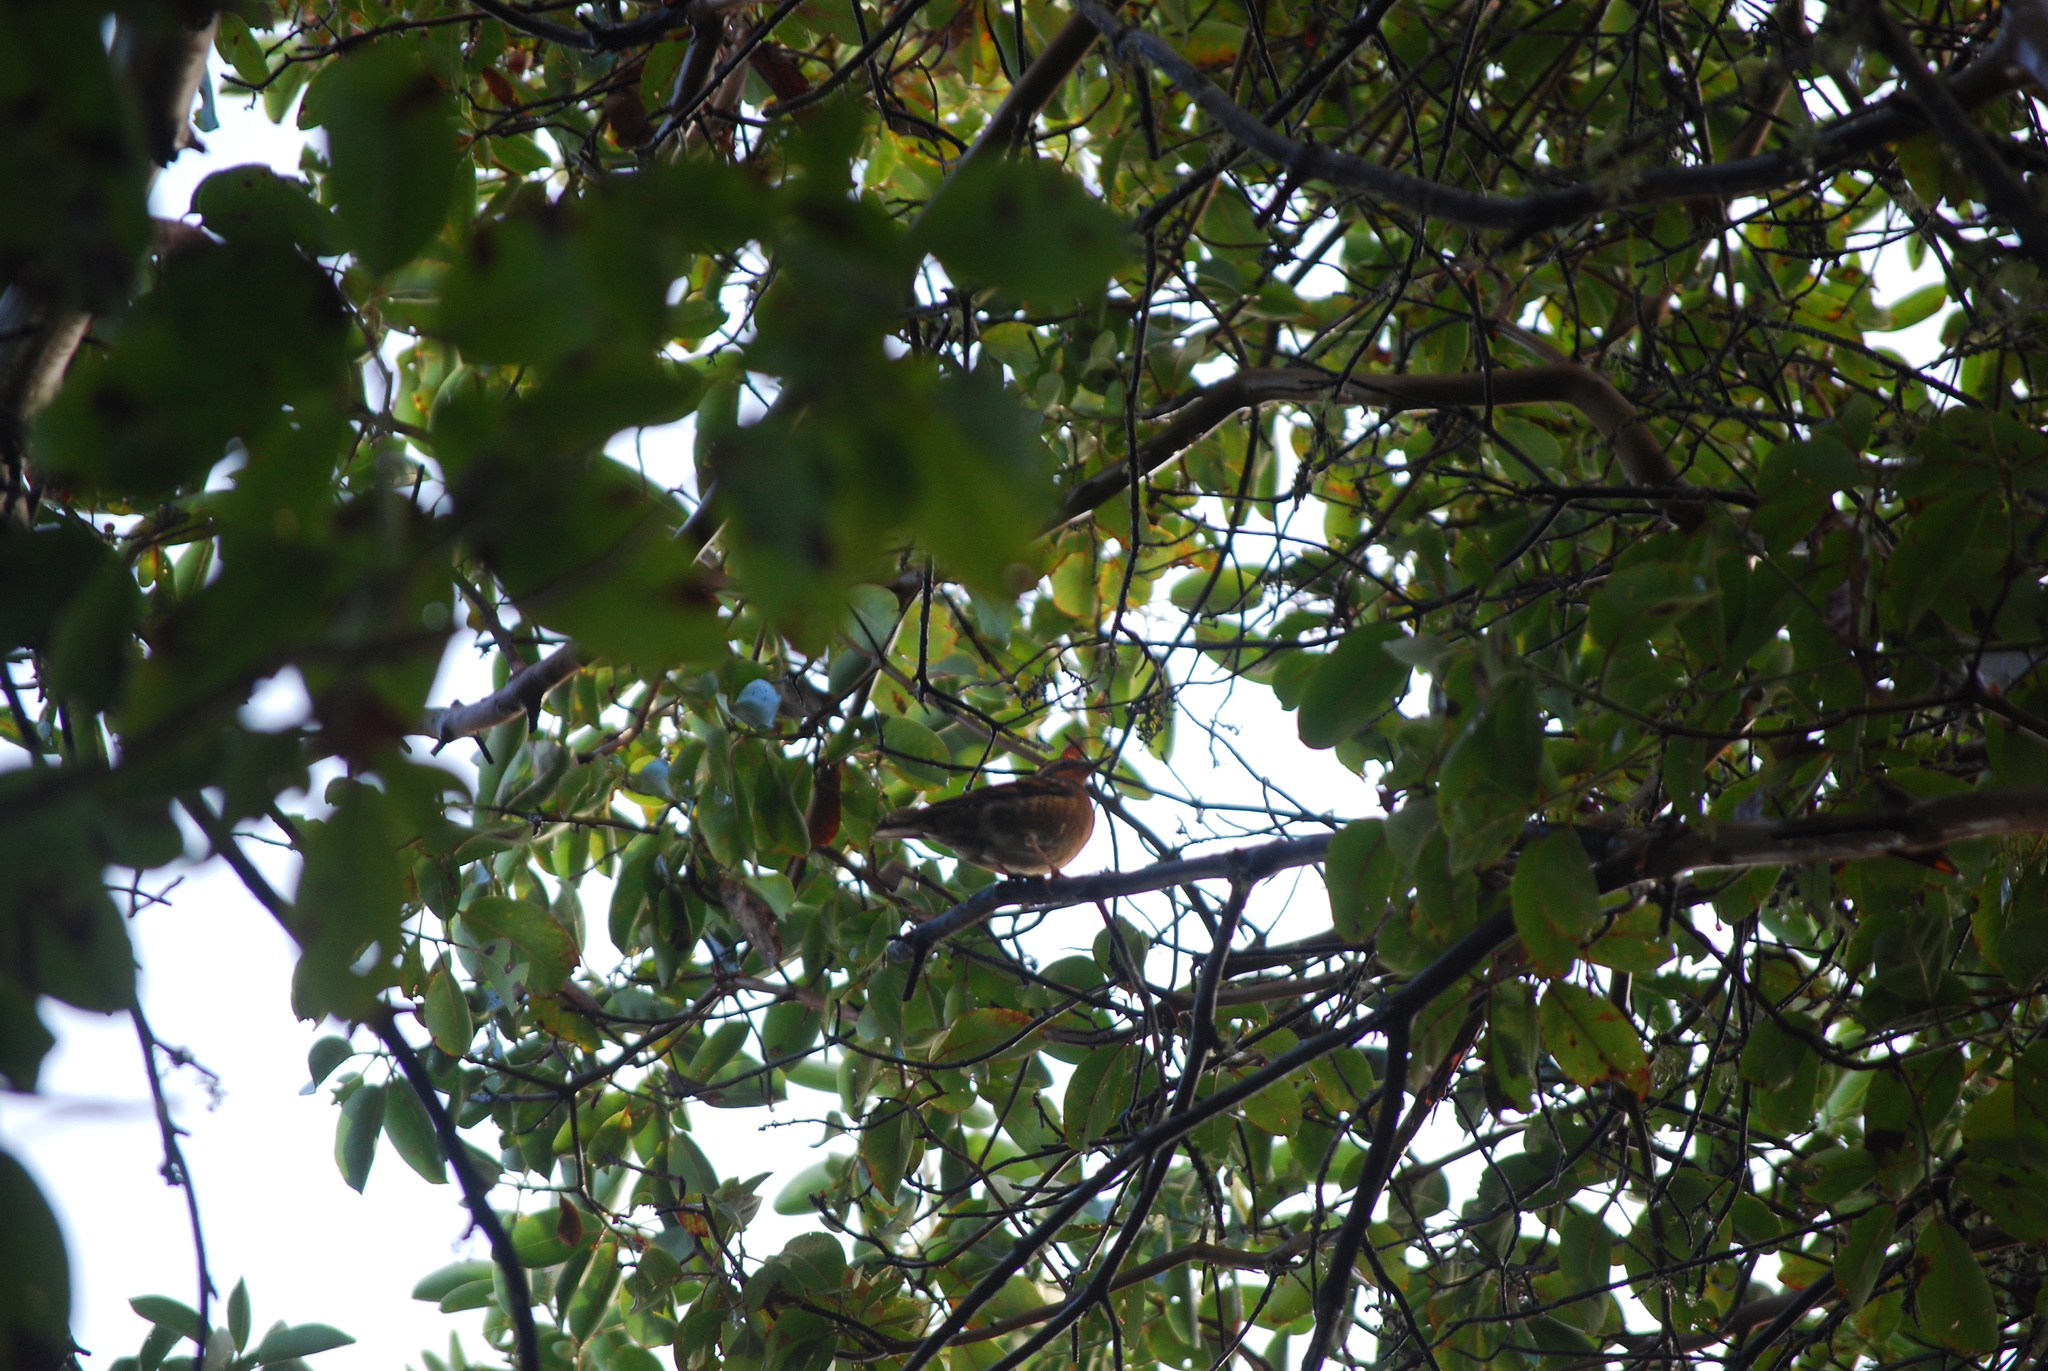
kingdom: Animalia
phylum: Chordata
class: Aves
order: Passeriformes
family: Turdidae
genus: Ixoreus
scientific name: Ixoreus naevius
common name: Varied thrush
